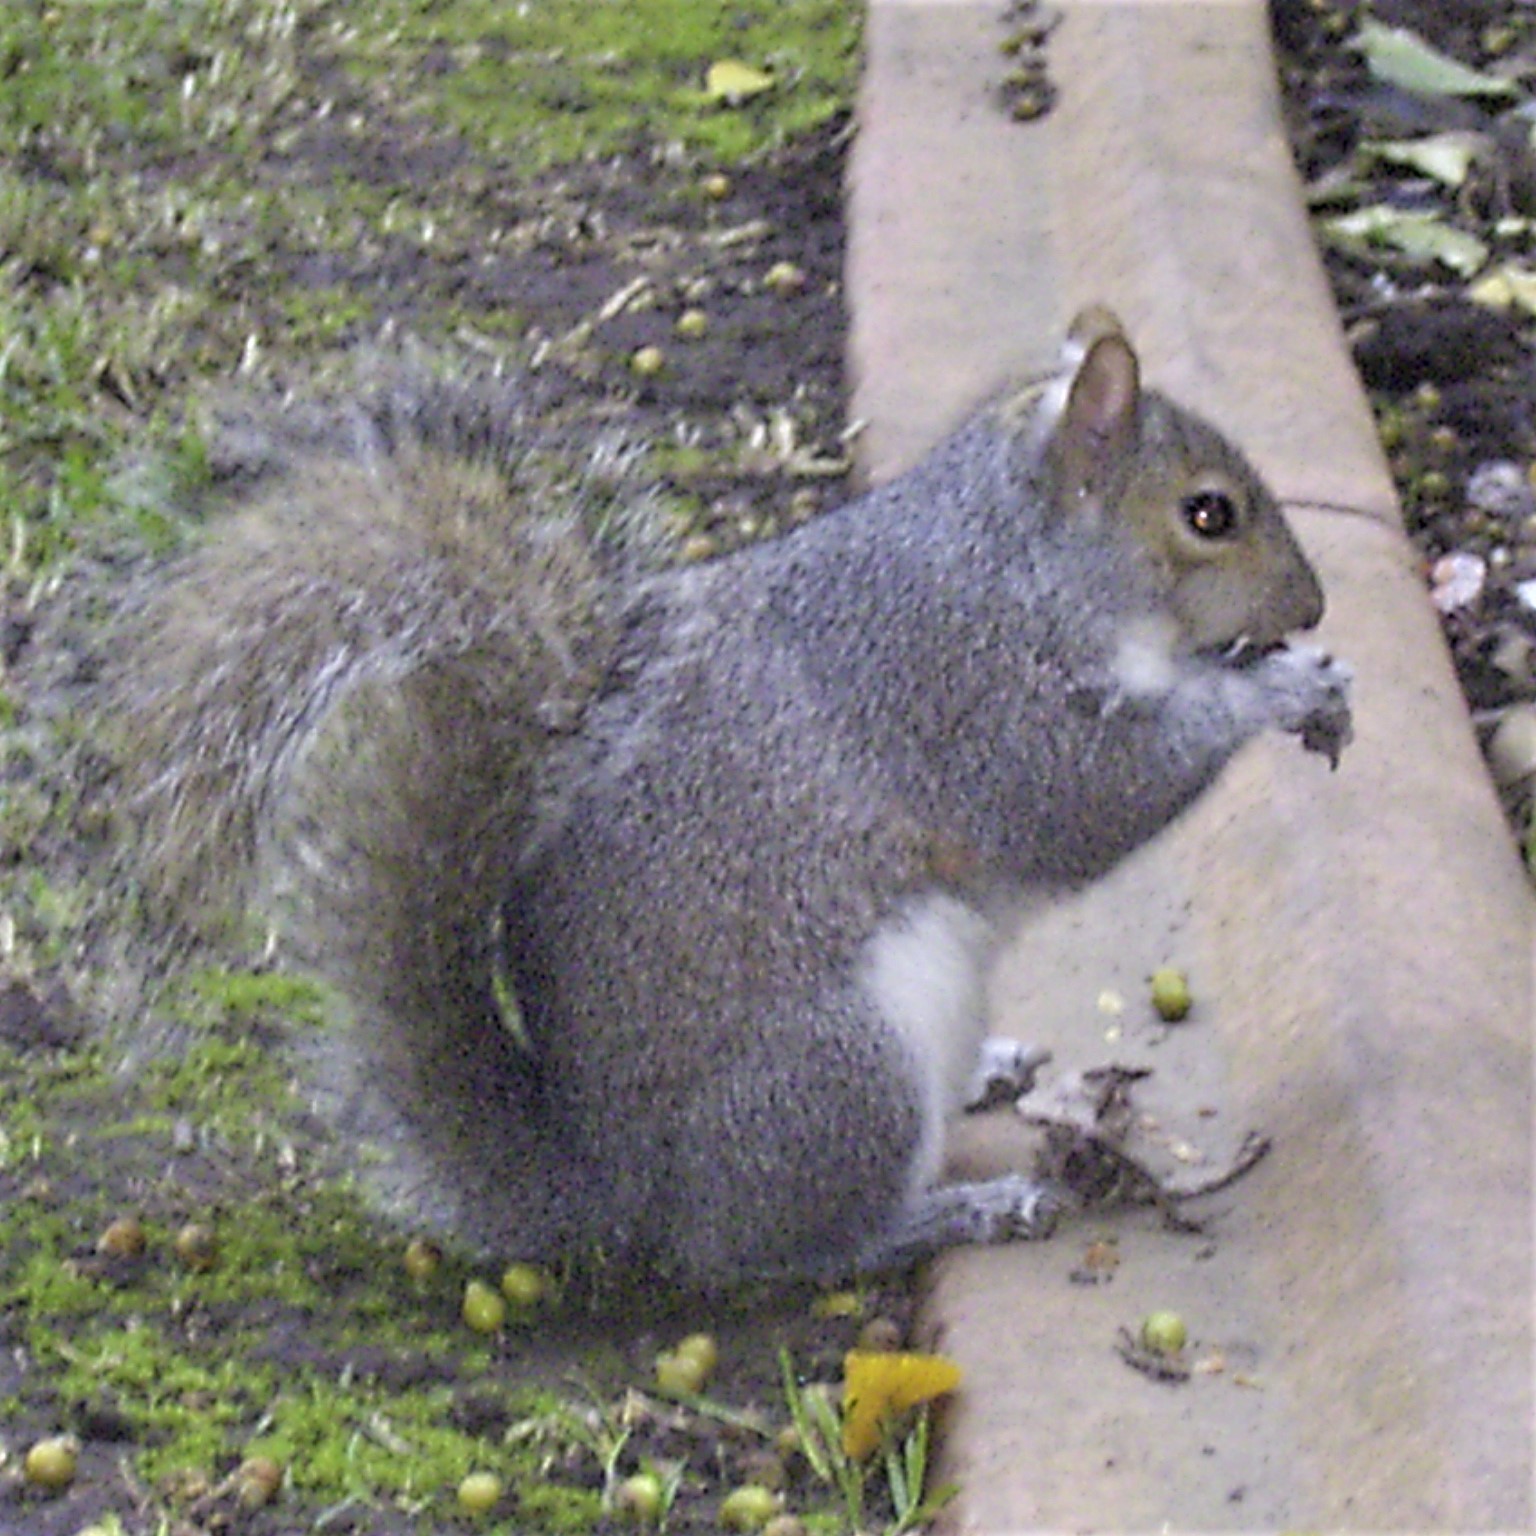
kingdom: Animalia
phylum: Chordata
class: Mammalia
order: Rodentia
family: Sciuridae
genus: Sciurus
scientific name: Sciurus carolinensis
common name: Eastern gray squirrel
